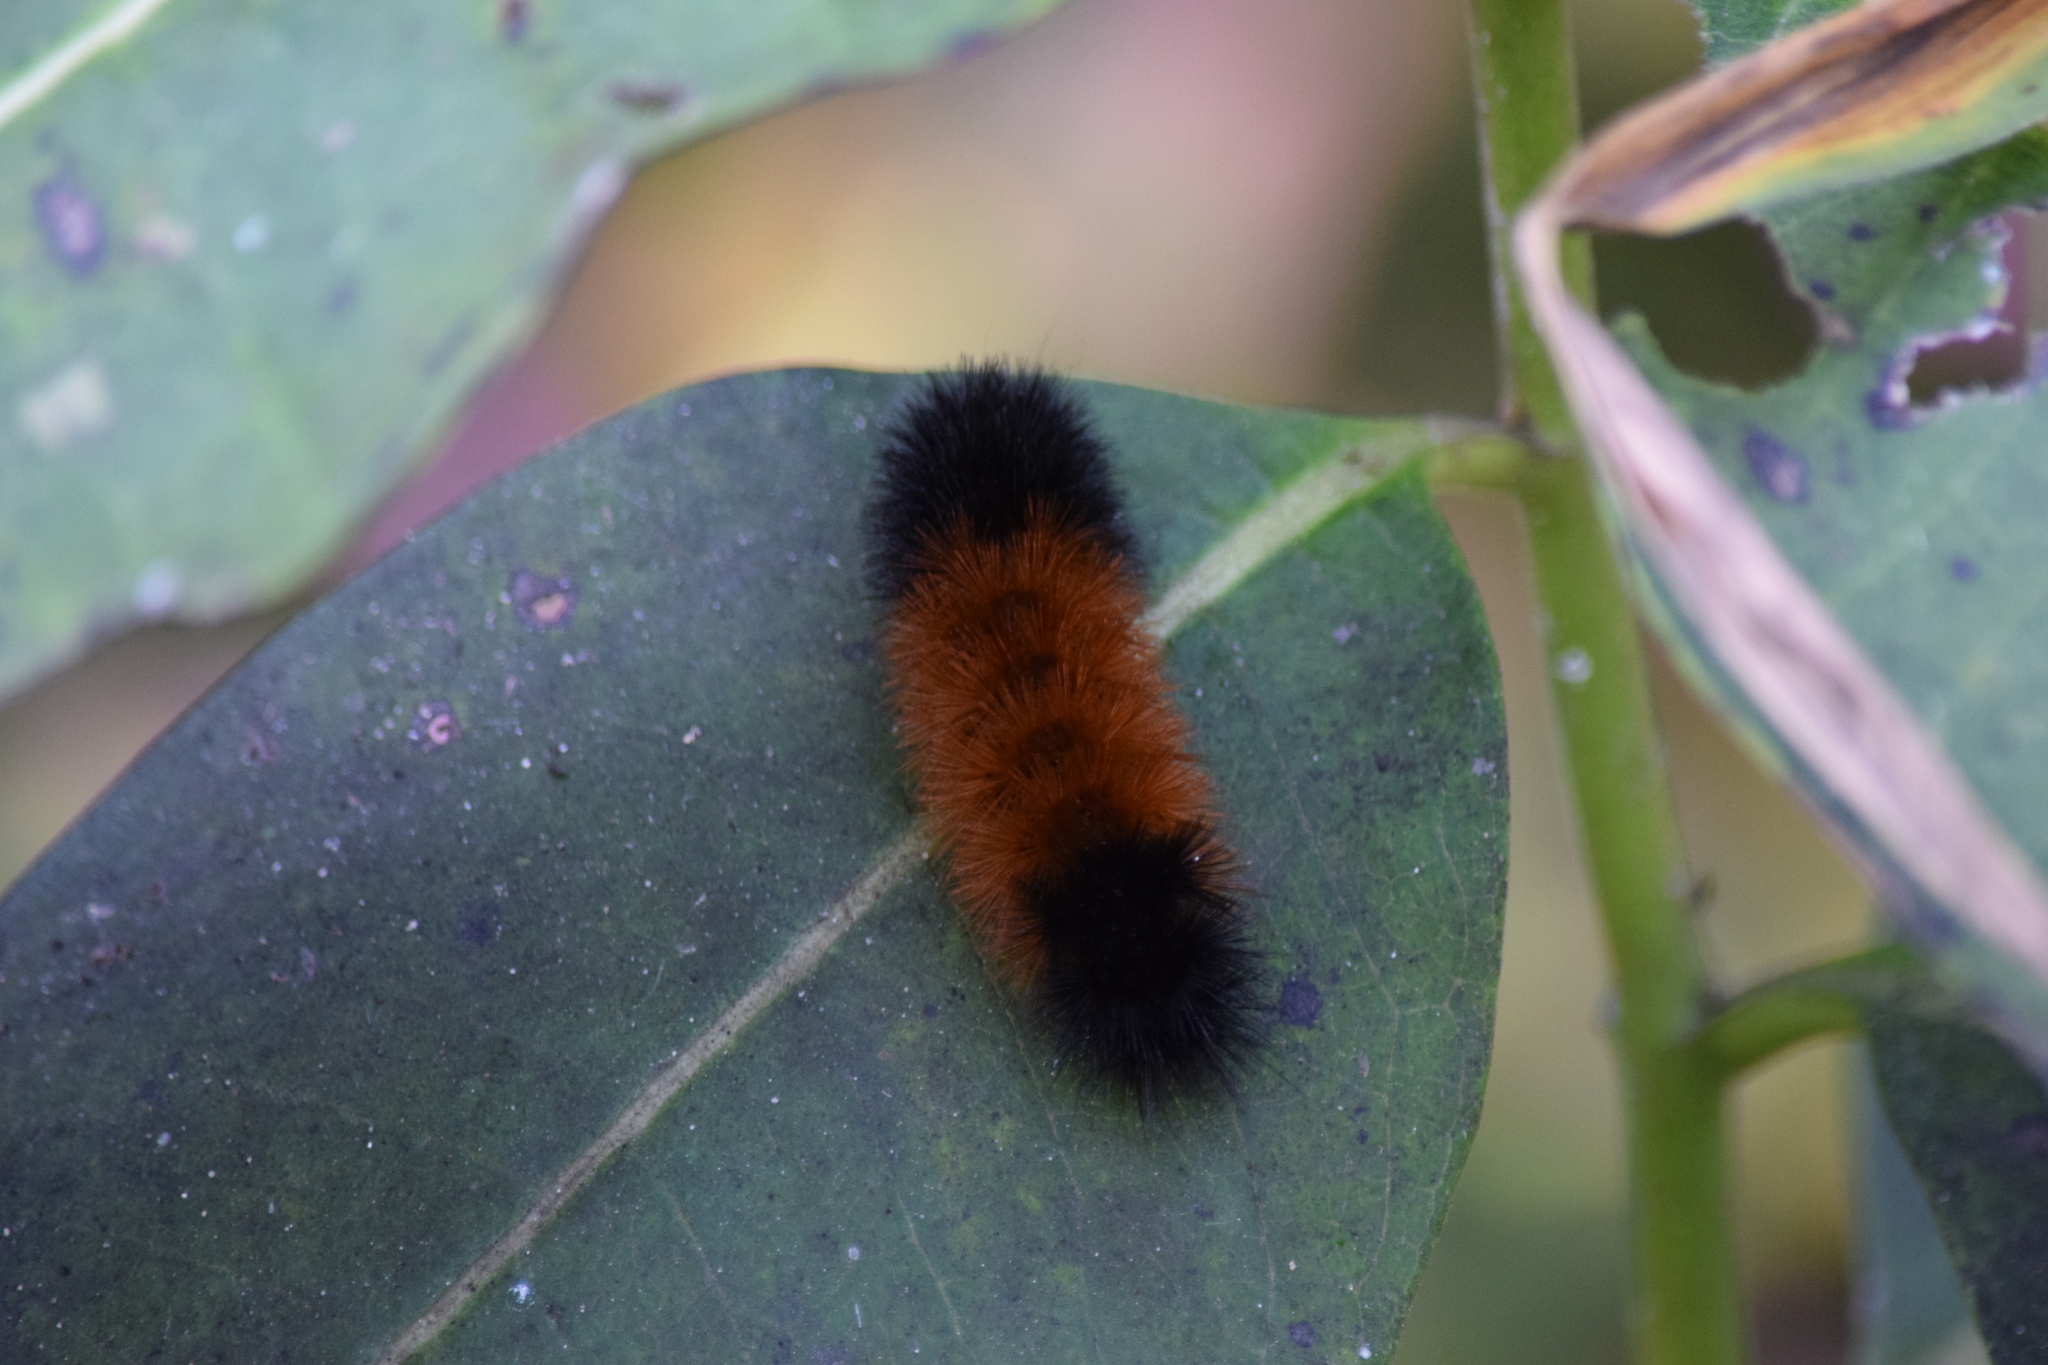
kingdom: Animalia
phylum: Arthropoda
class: Insecta
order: Lepidoptera
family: Erebidae
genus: Pyrrharctia
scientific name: Pyrrharctia isabella
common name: Isabella tiger moth
